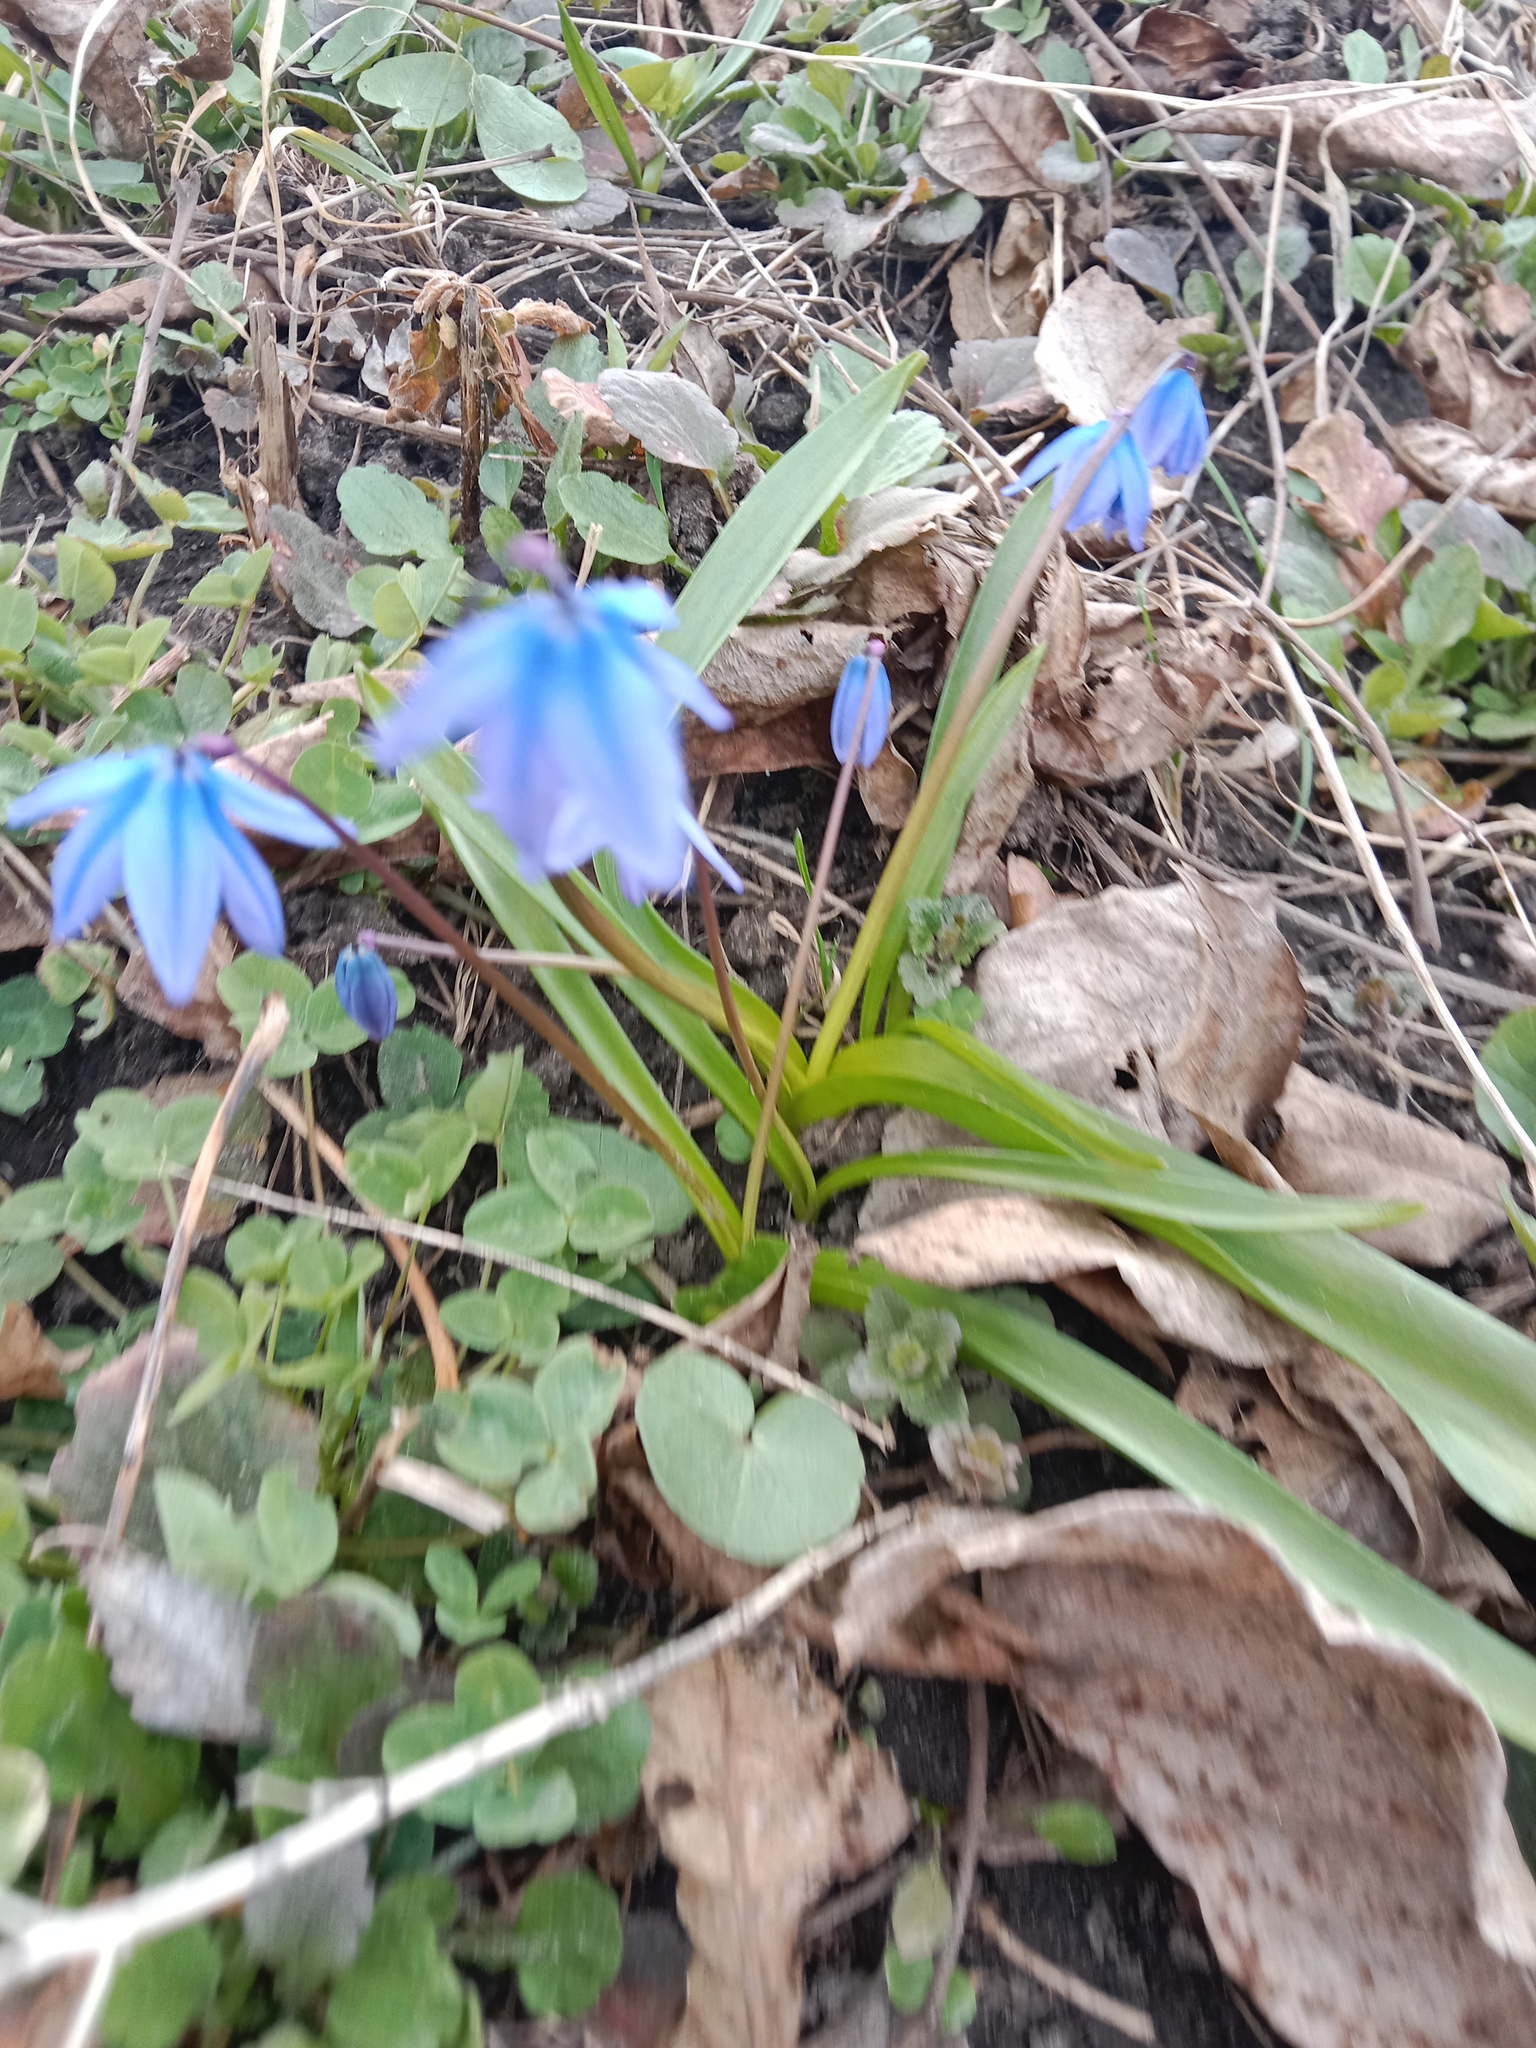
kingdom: Plantae
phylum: Tracheophyta
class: Liliopsida
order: Asparagales
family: Asparagaceae
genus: Scilla
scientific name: Scilla siberica
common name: Siberian squill
